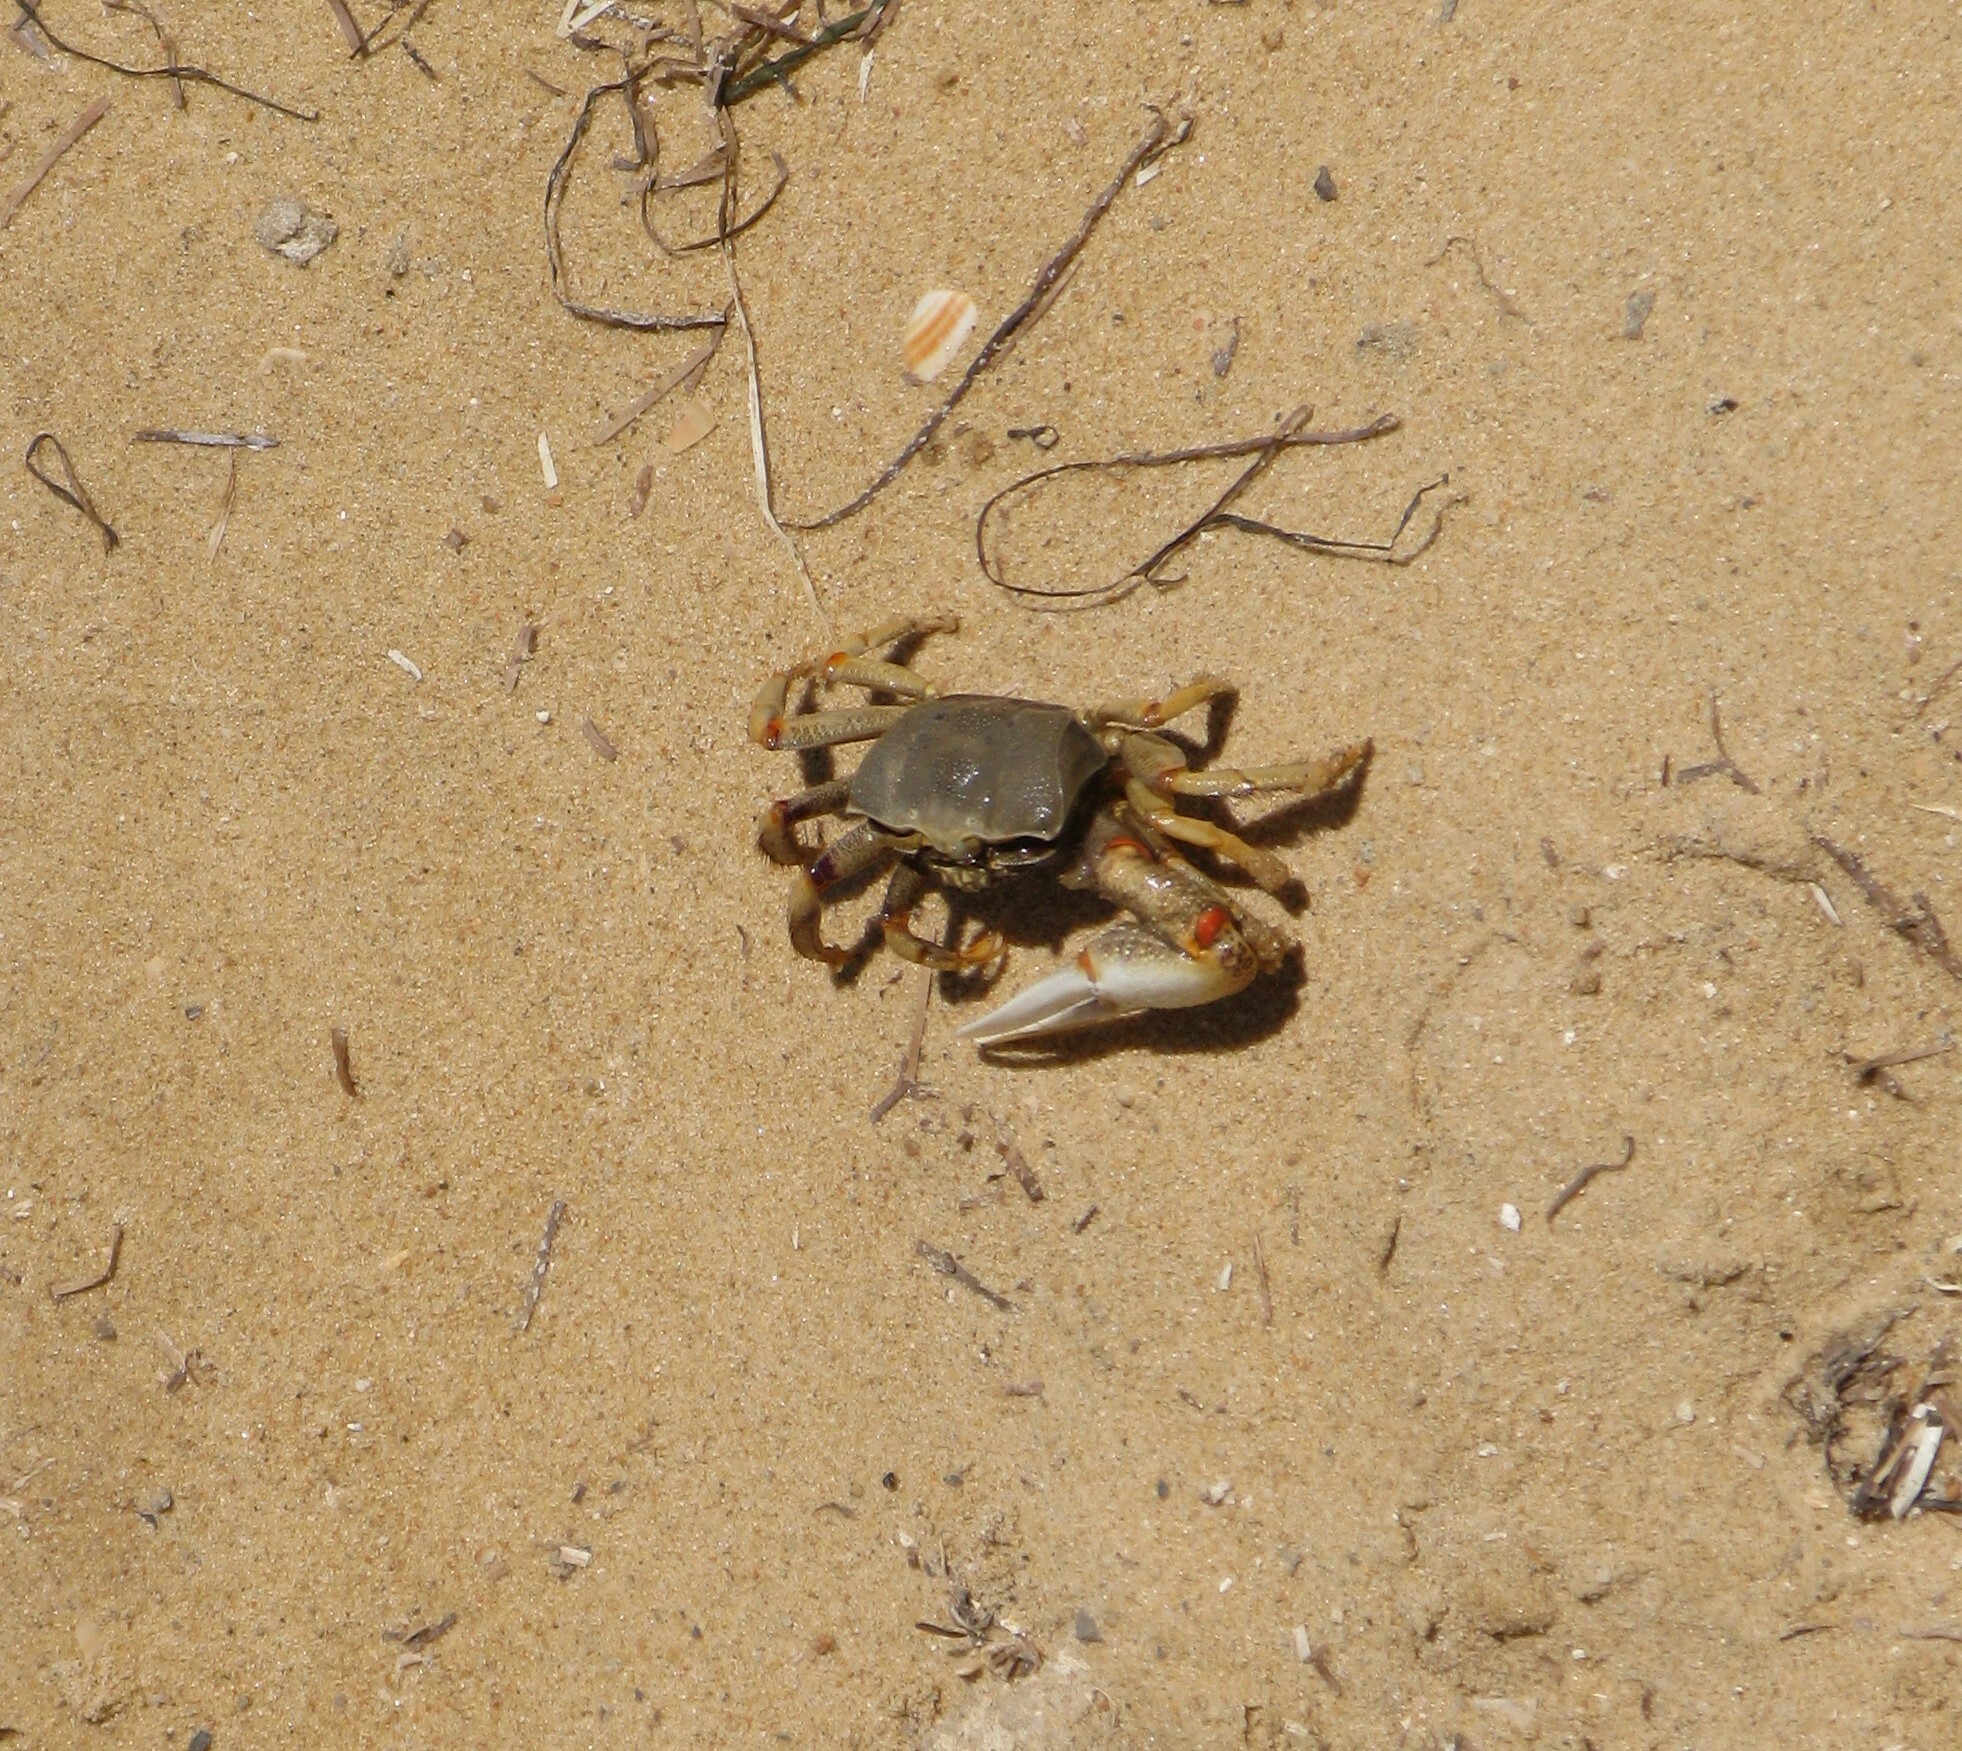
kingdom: Animalia
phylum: Arthropoda
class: Malacostraca
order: Decapoda
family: Ocypodidae
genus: Afruca
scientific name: Afruca tangeri
